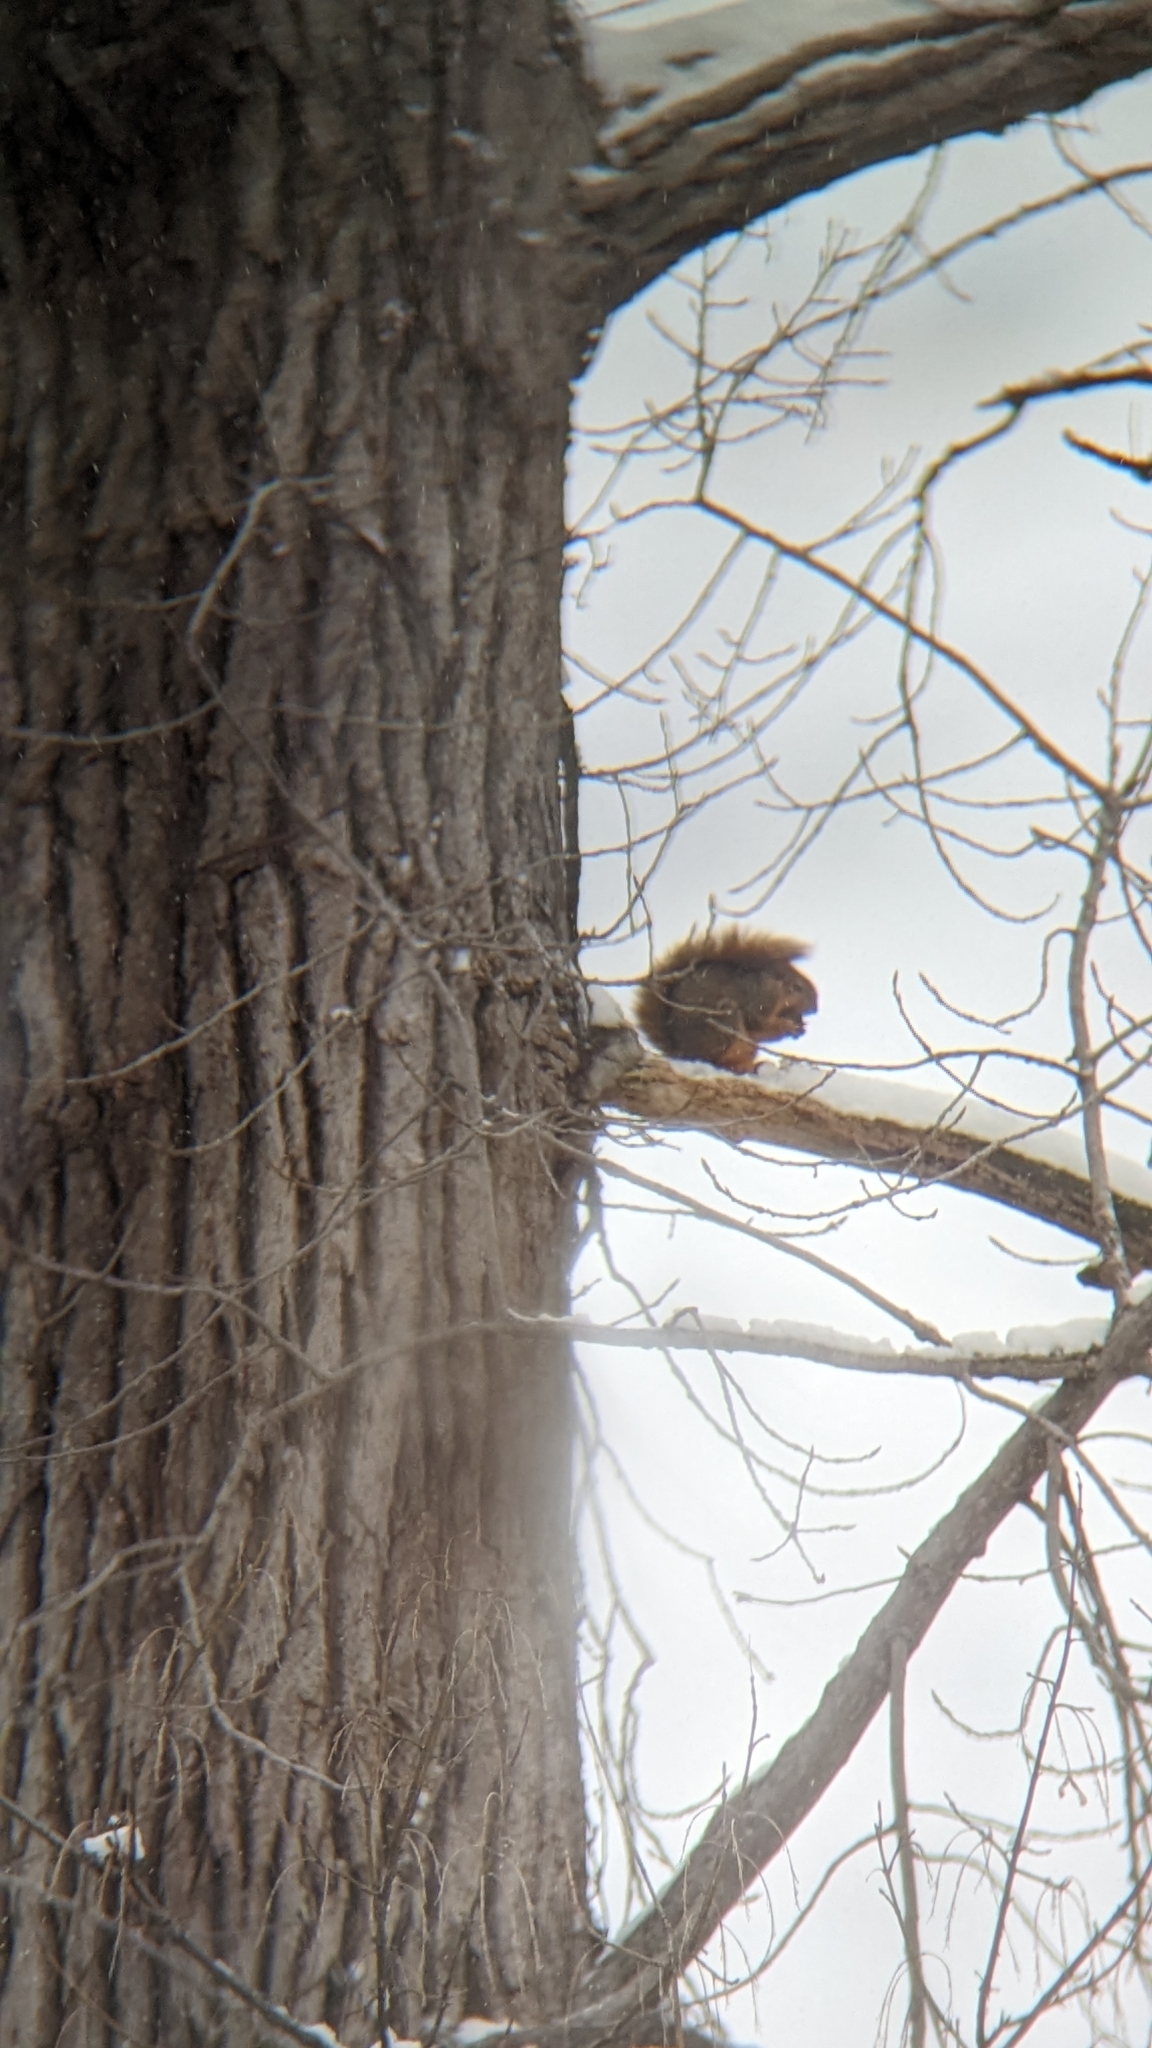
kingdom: Animalia
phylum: Chordata
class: Mammalia
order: Rodentia
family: Sciuridae
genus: Sciurus
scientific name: Sciurus niger
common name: Fox squirrel
